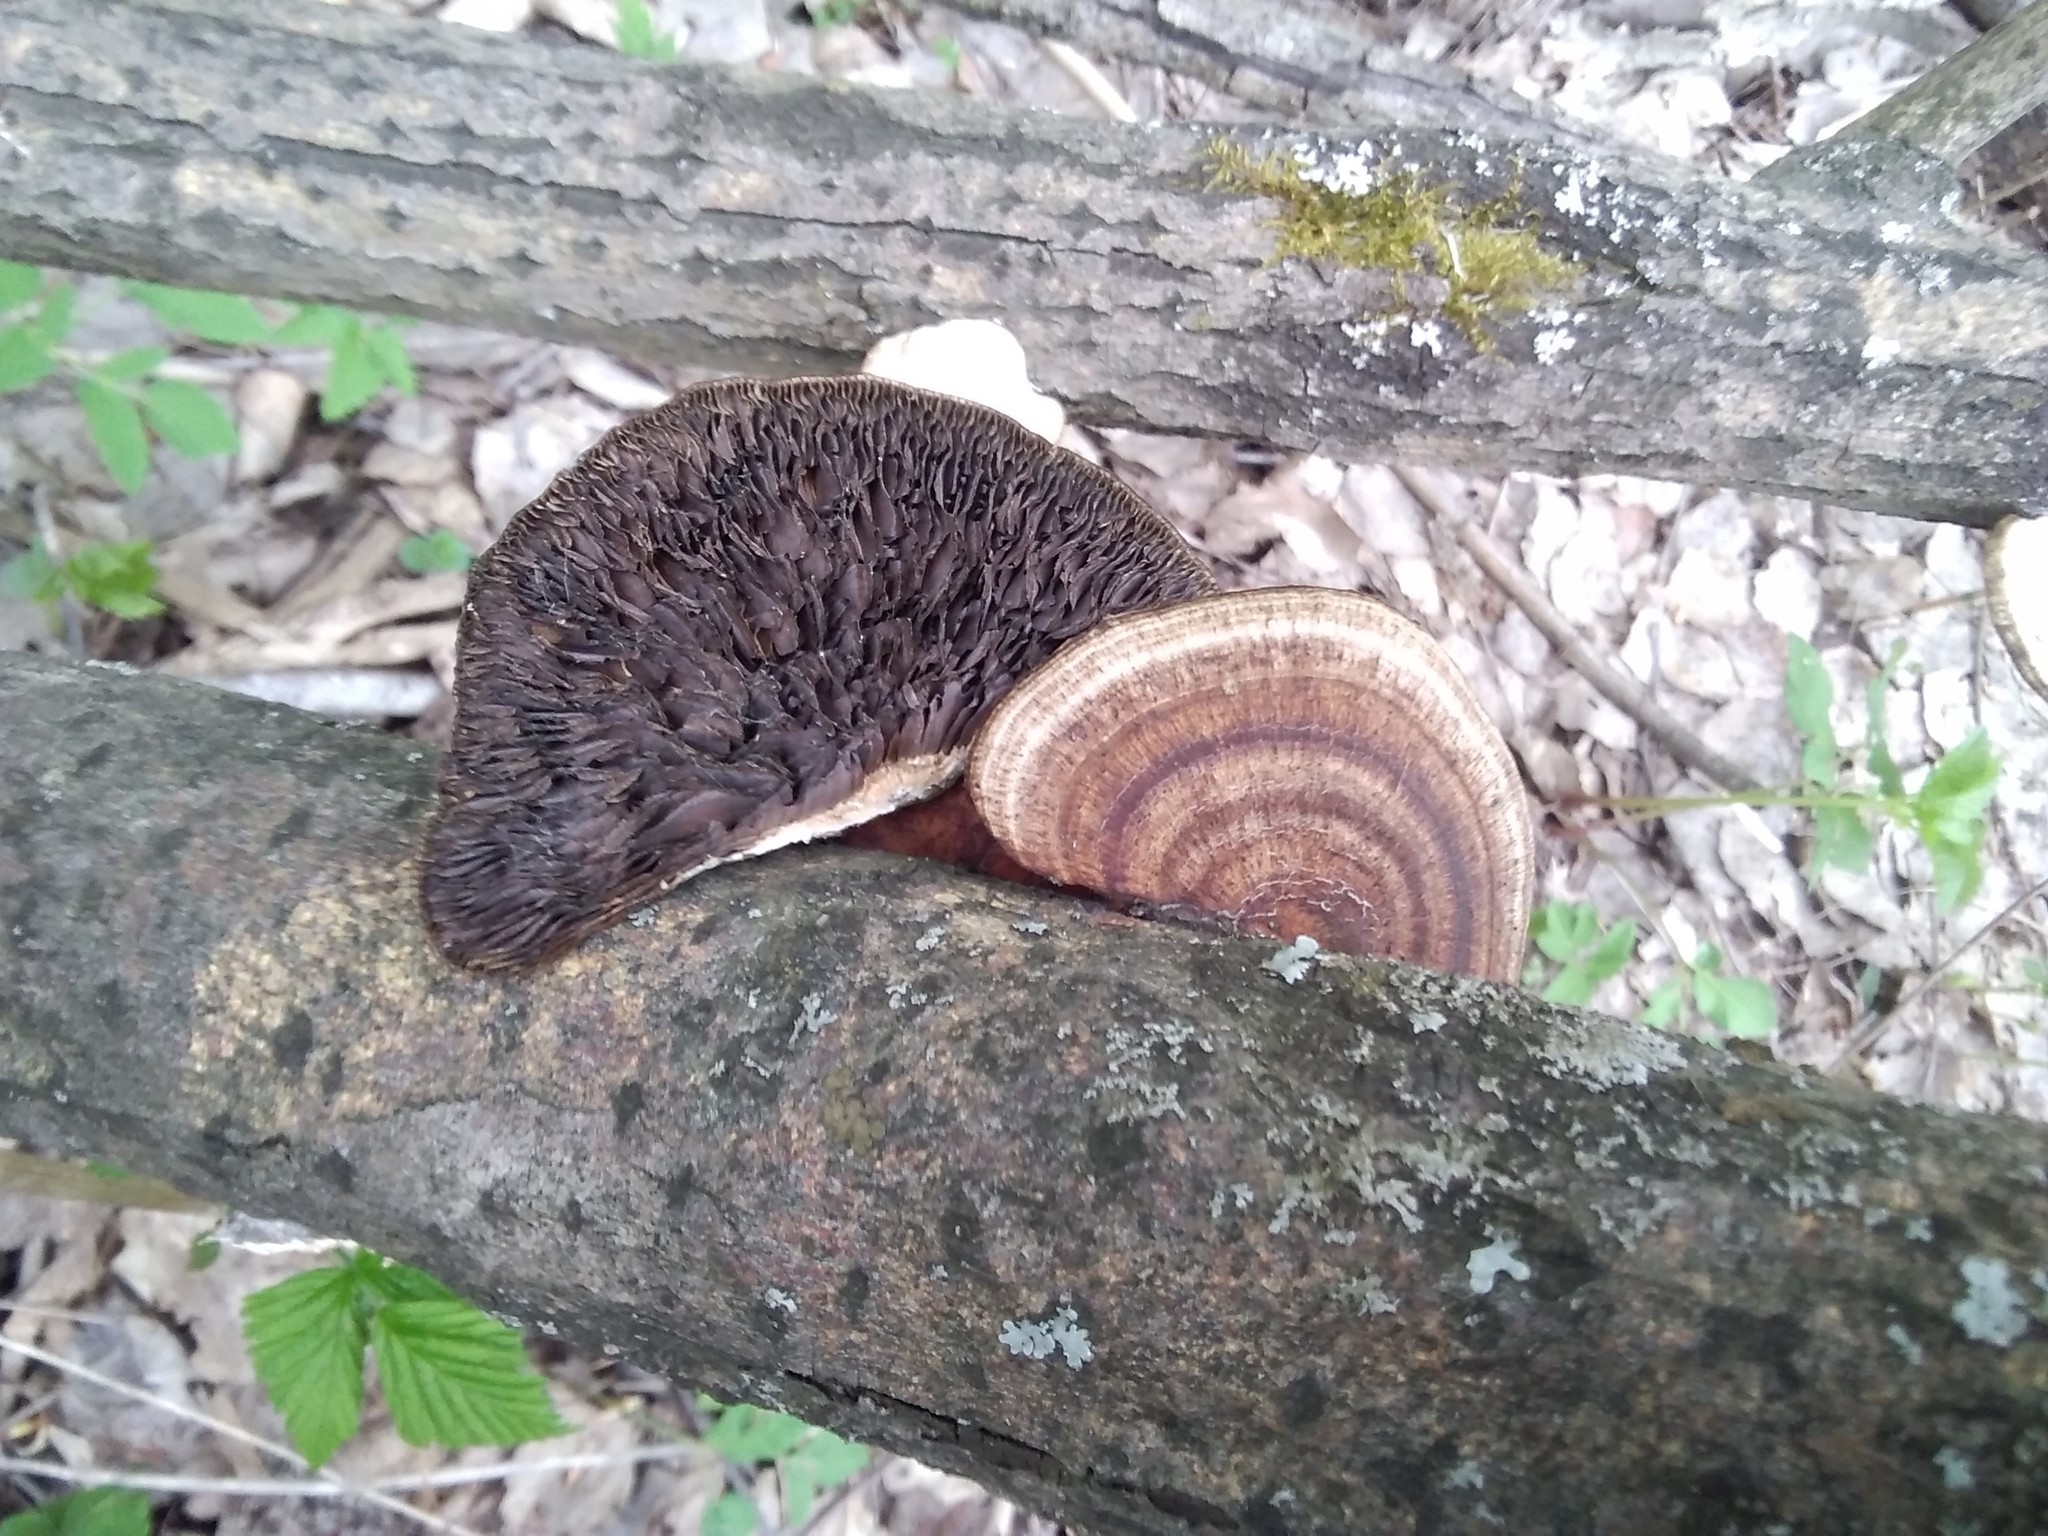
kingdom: Fungi
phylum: Basidiomycota
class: Agaricomycetes
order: Polyporales
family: Polyporaceae
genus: Daedaleopsis
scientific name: Daedaleopsis confragosa
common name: Blushing bracket
